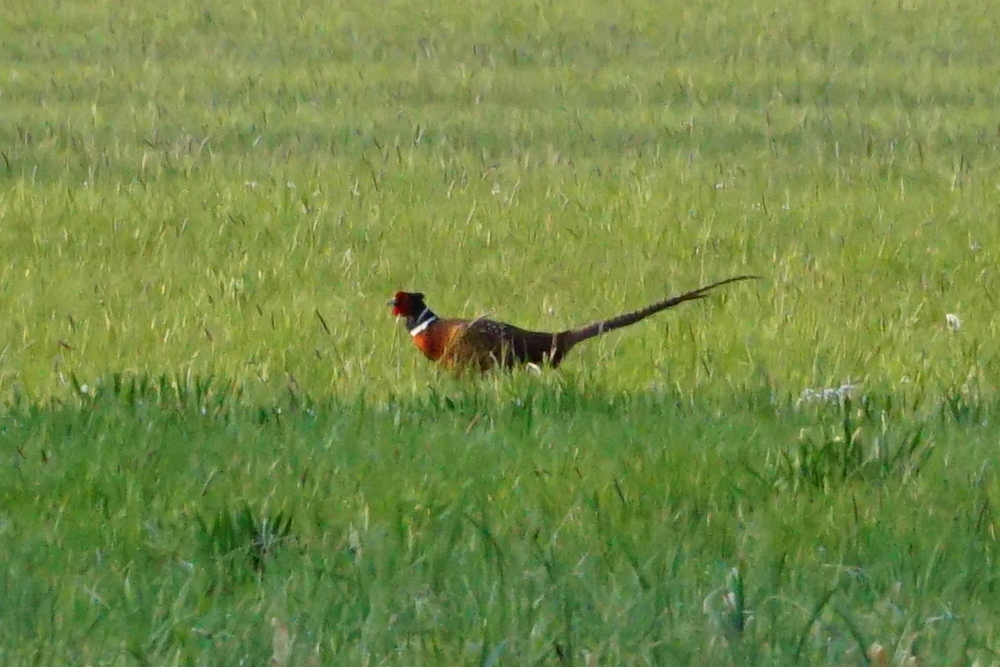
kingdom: Animalia
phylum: Chordata
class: Aves
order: Galliformes
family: Phasianidae
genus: Phasianus
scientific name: Phasianus colchicus
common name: Common pheasant
